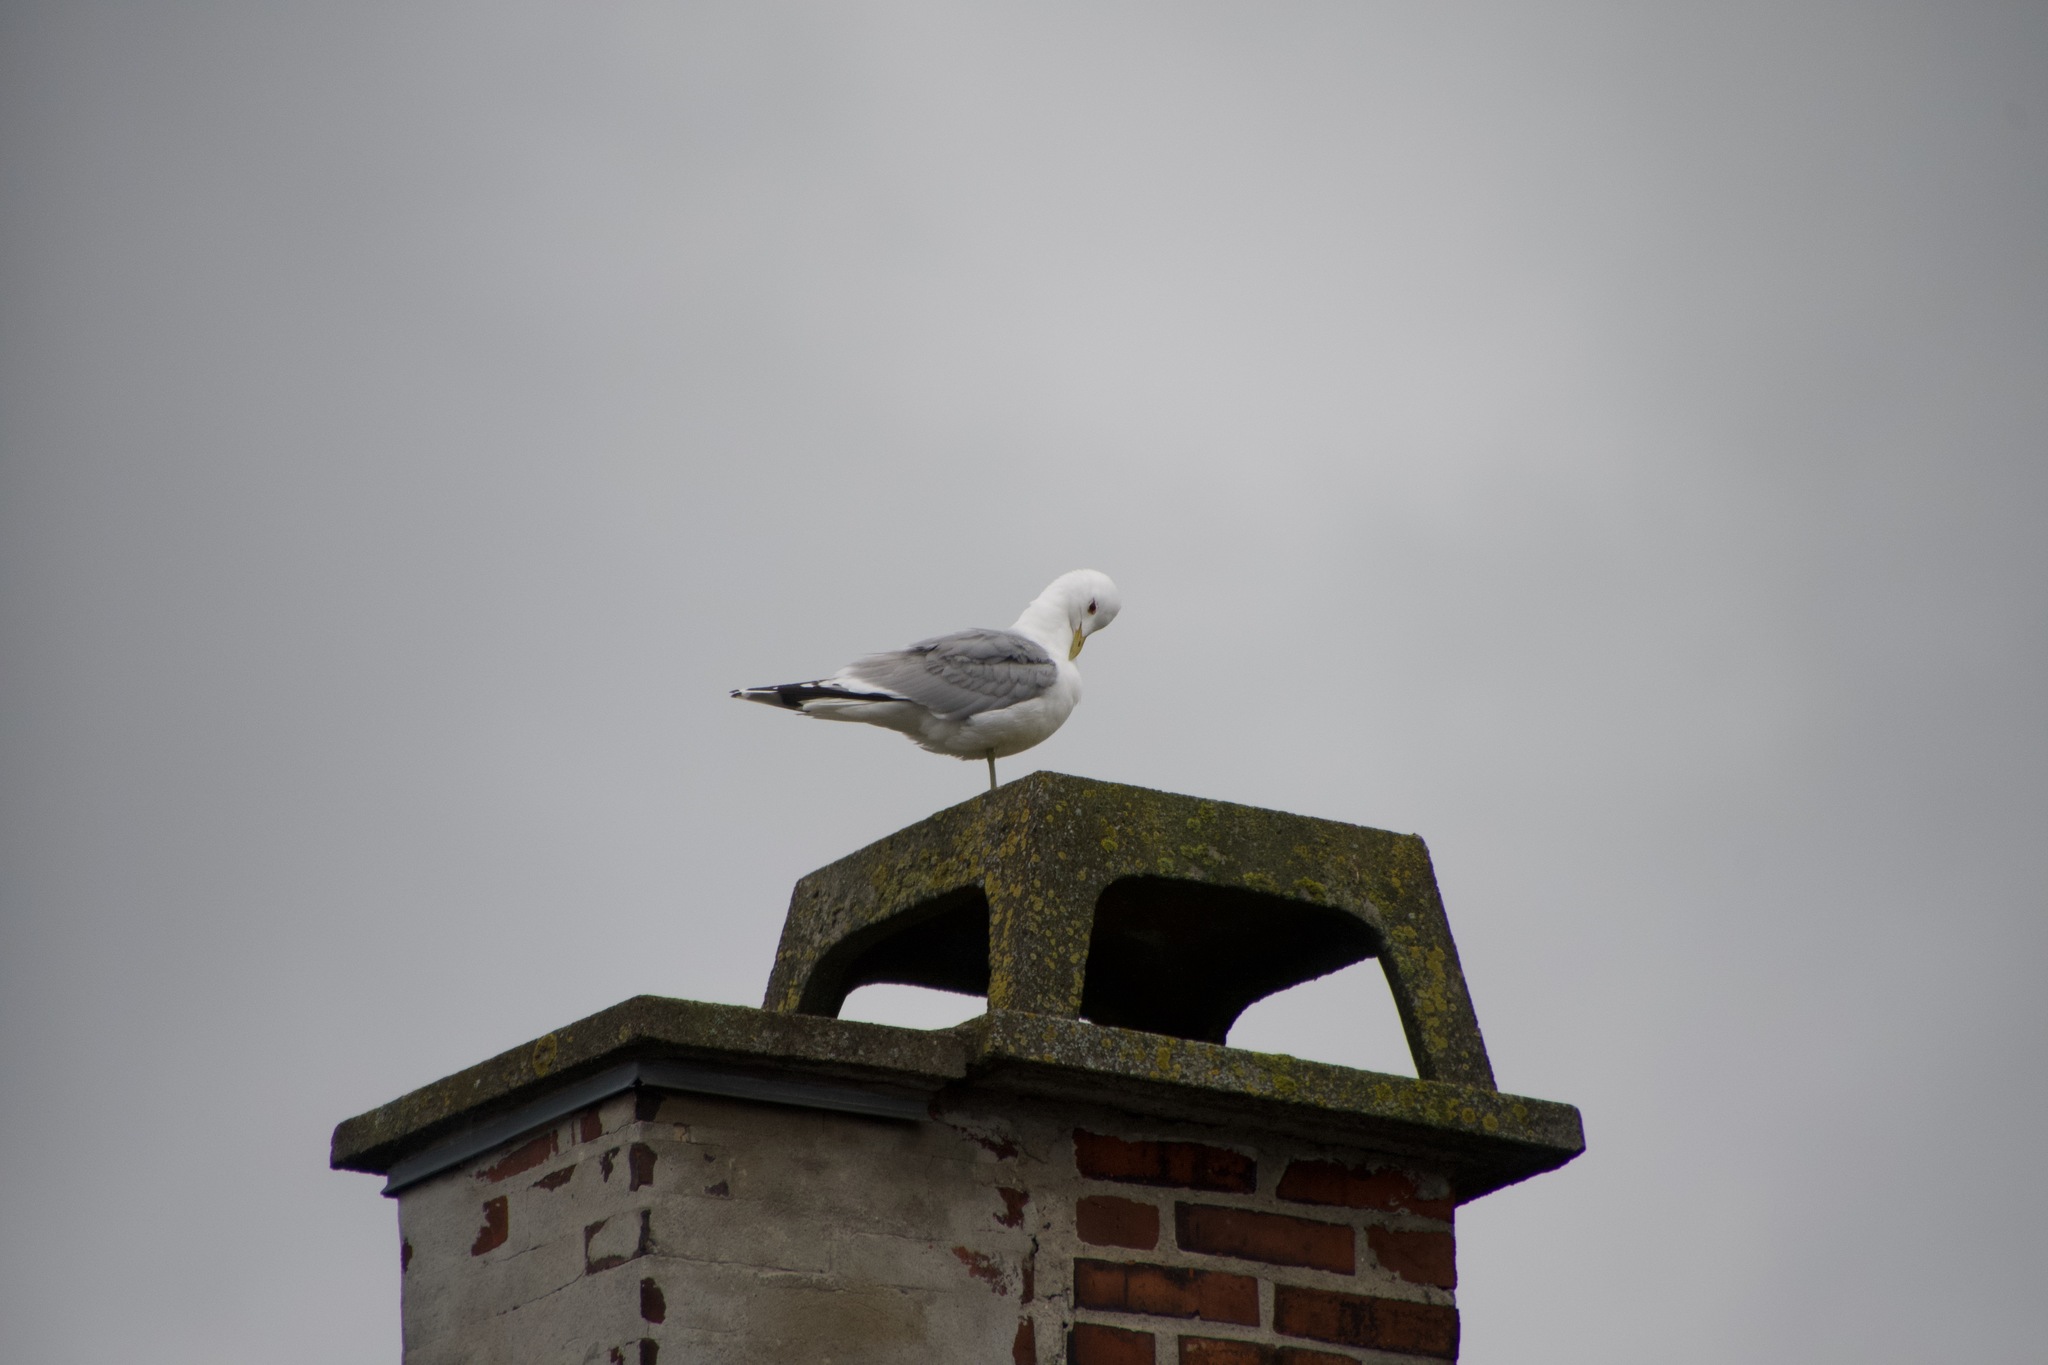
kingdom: Animalia
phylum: Chordata
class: Aves
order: Charadriiformes
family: Laridae
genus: Larus
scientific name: Larus canus
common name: Mew gull
